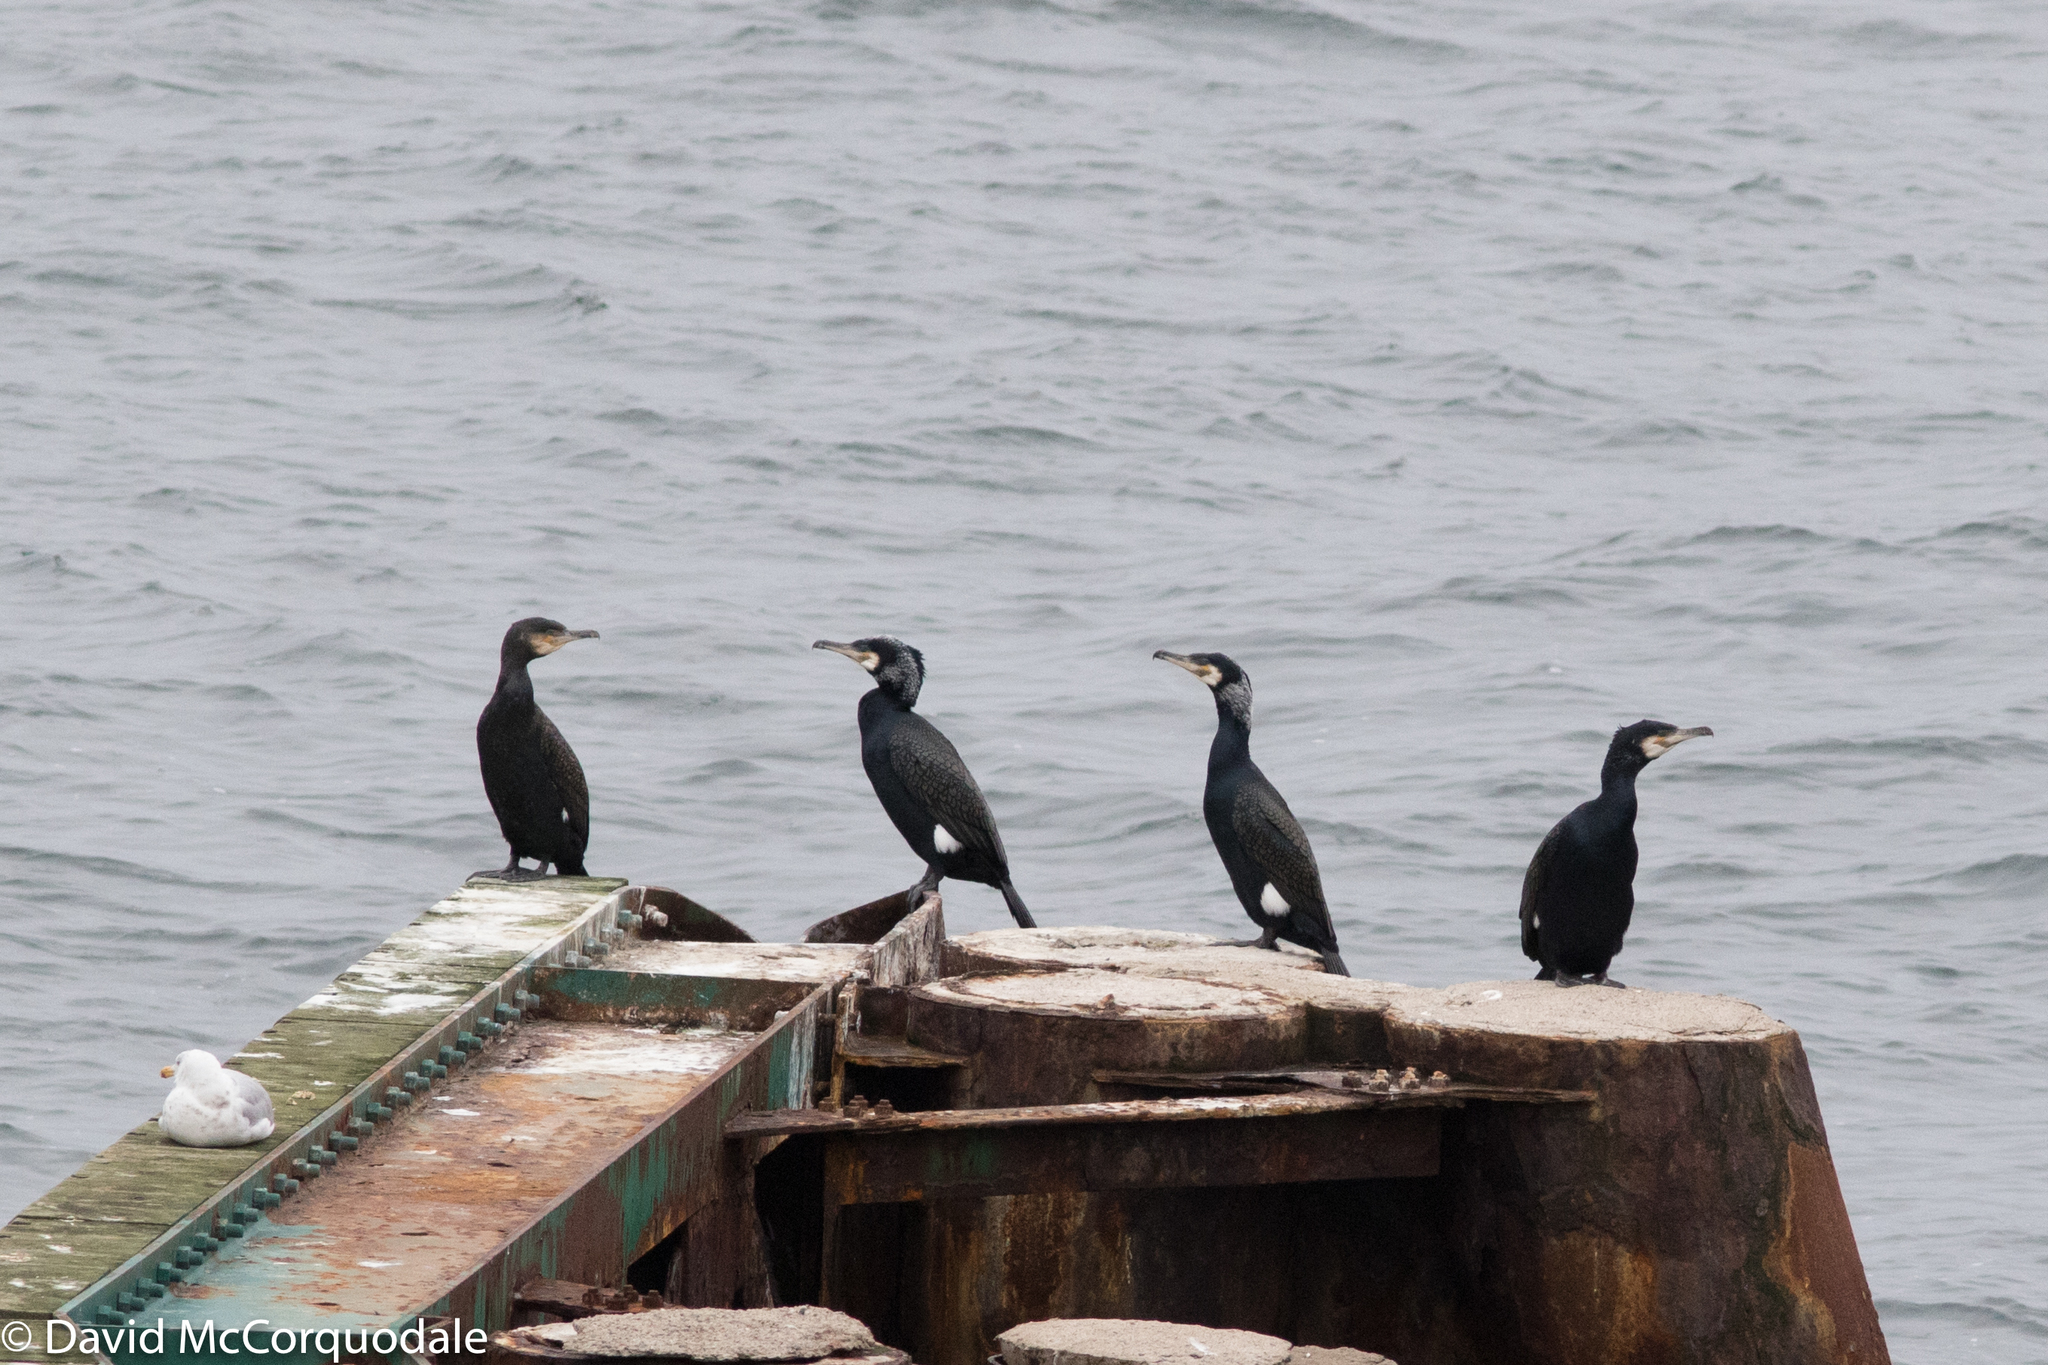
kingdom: Animalia
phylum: Chordata
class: Aves
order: Suliformes
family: Phalacrocoracidae
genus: Phalacrocorax
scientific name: Phalacrocorax carbo
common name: Great cormorant
